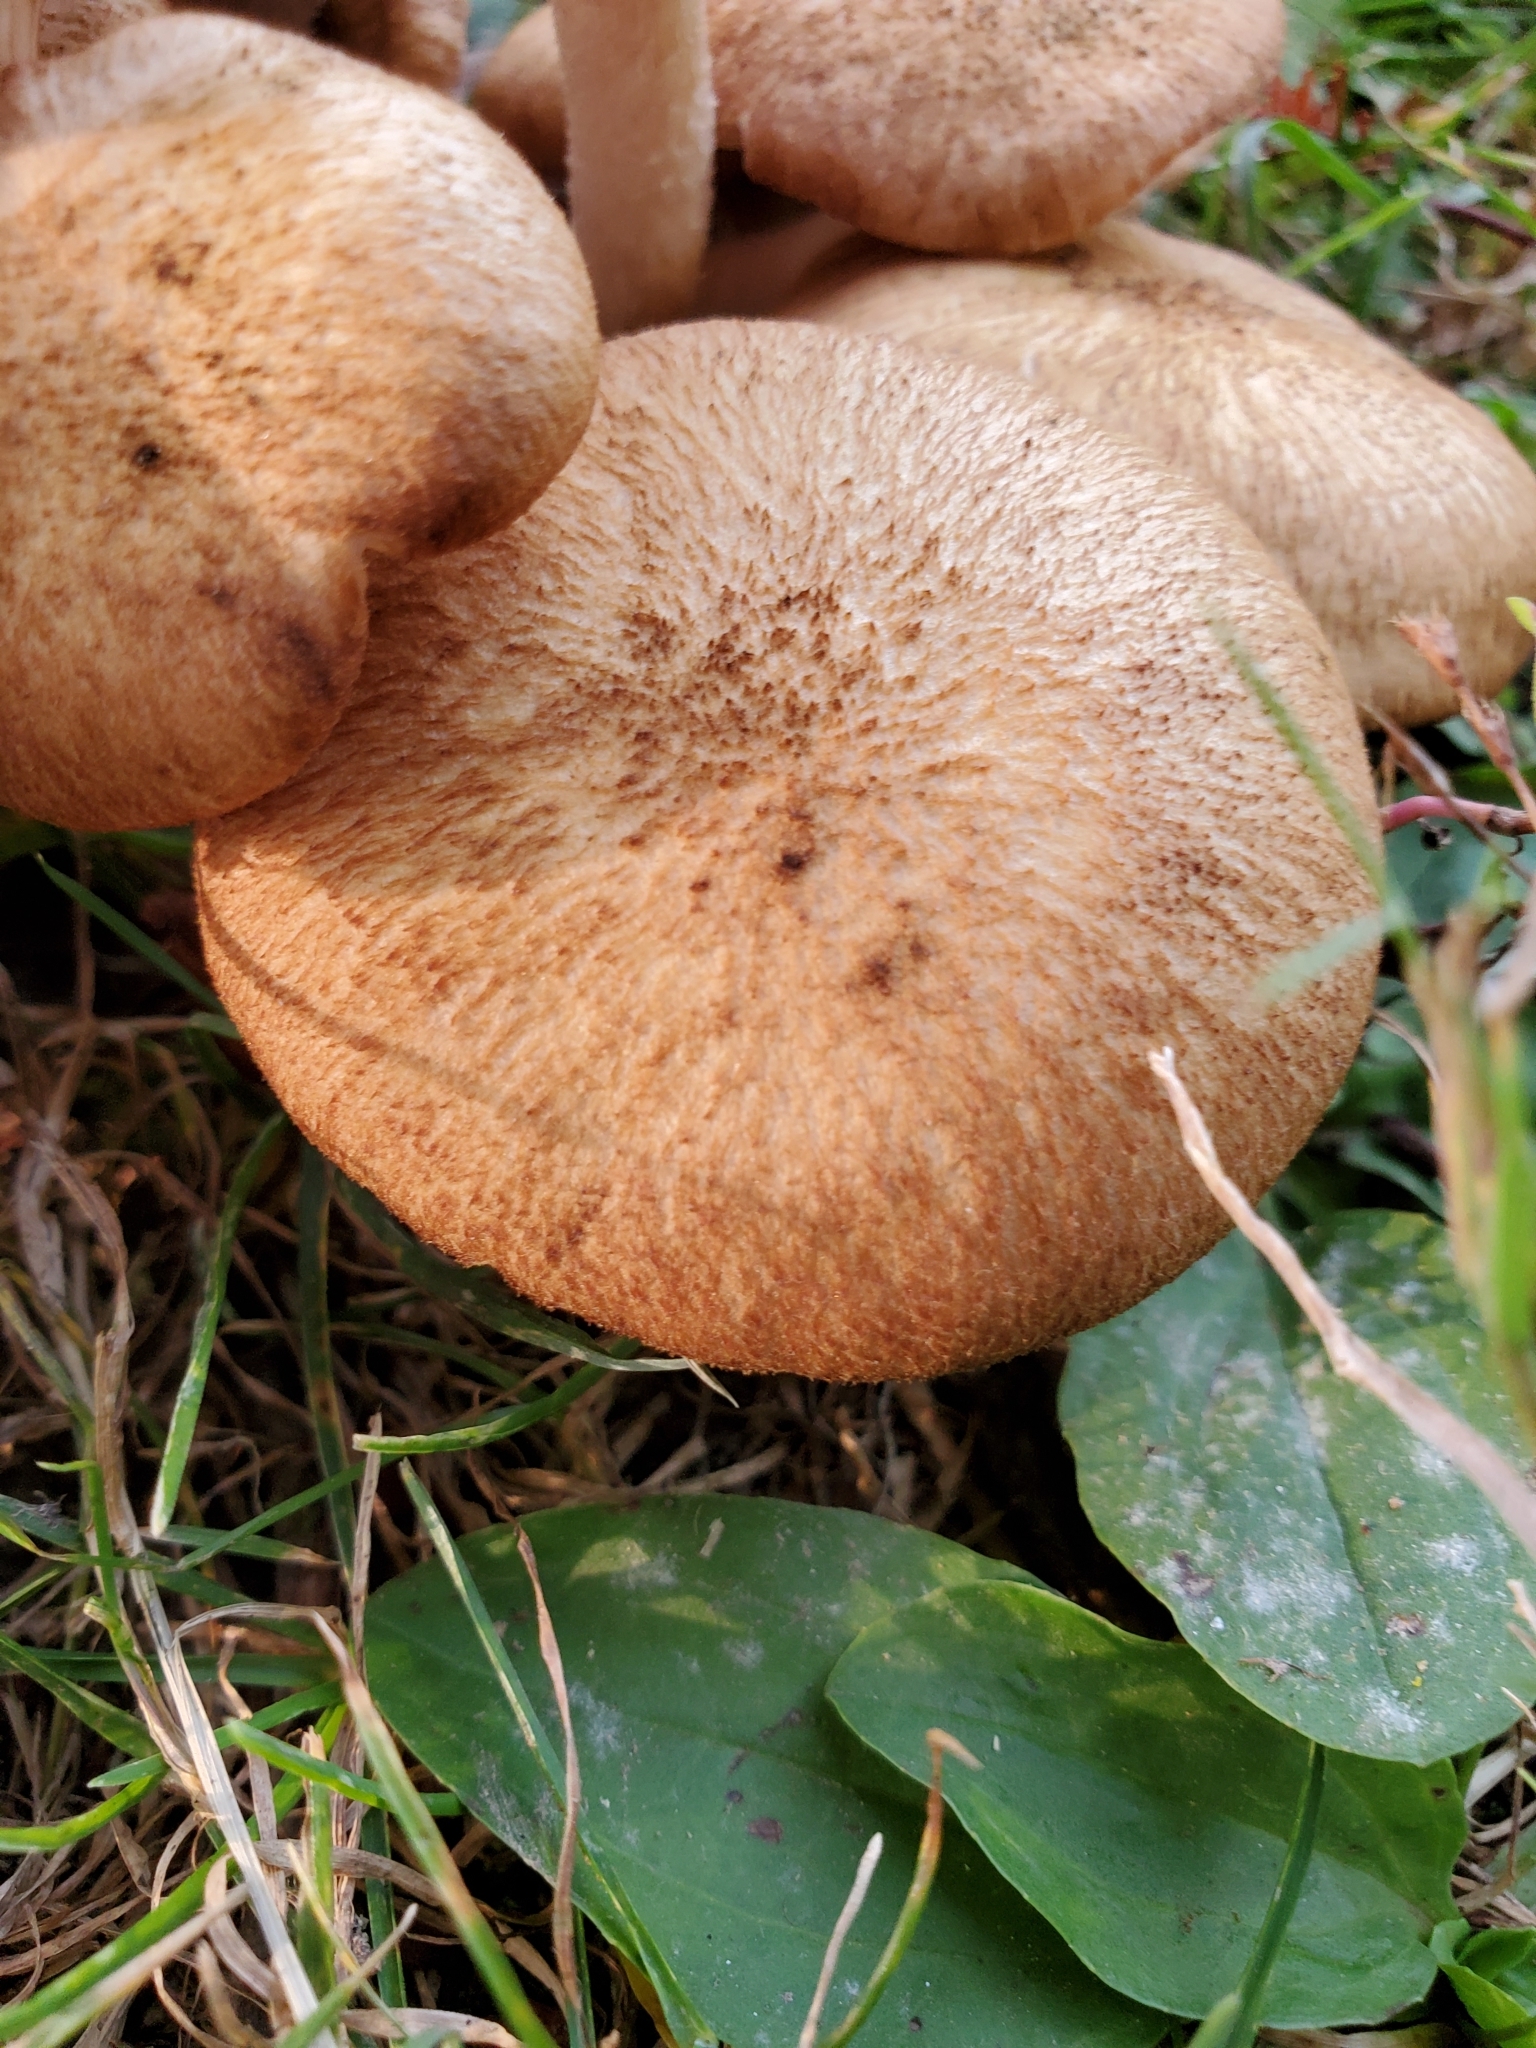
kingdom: Fungi
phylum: Basidiomycota
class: Agaricomycetes
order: Agaricales
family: Physalacriaceae
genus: Desarmillaria
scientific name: Desarmillaria caespitosa
